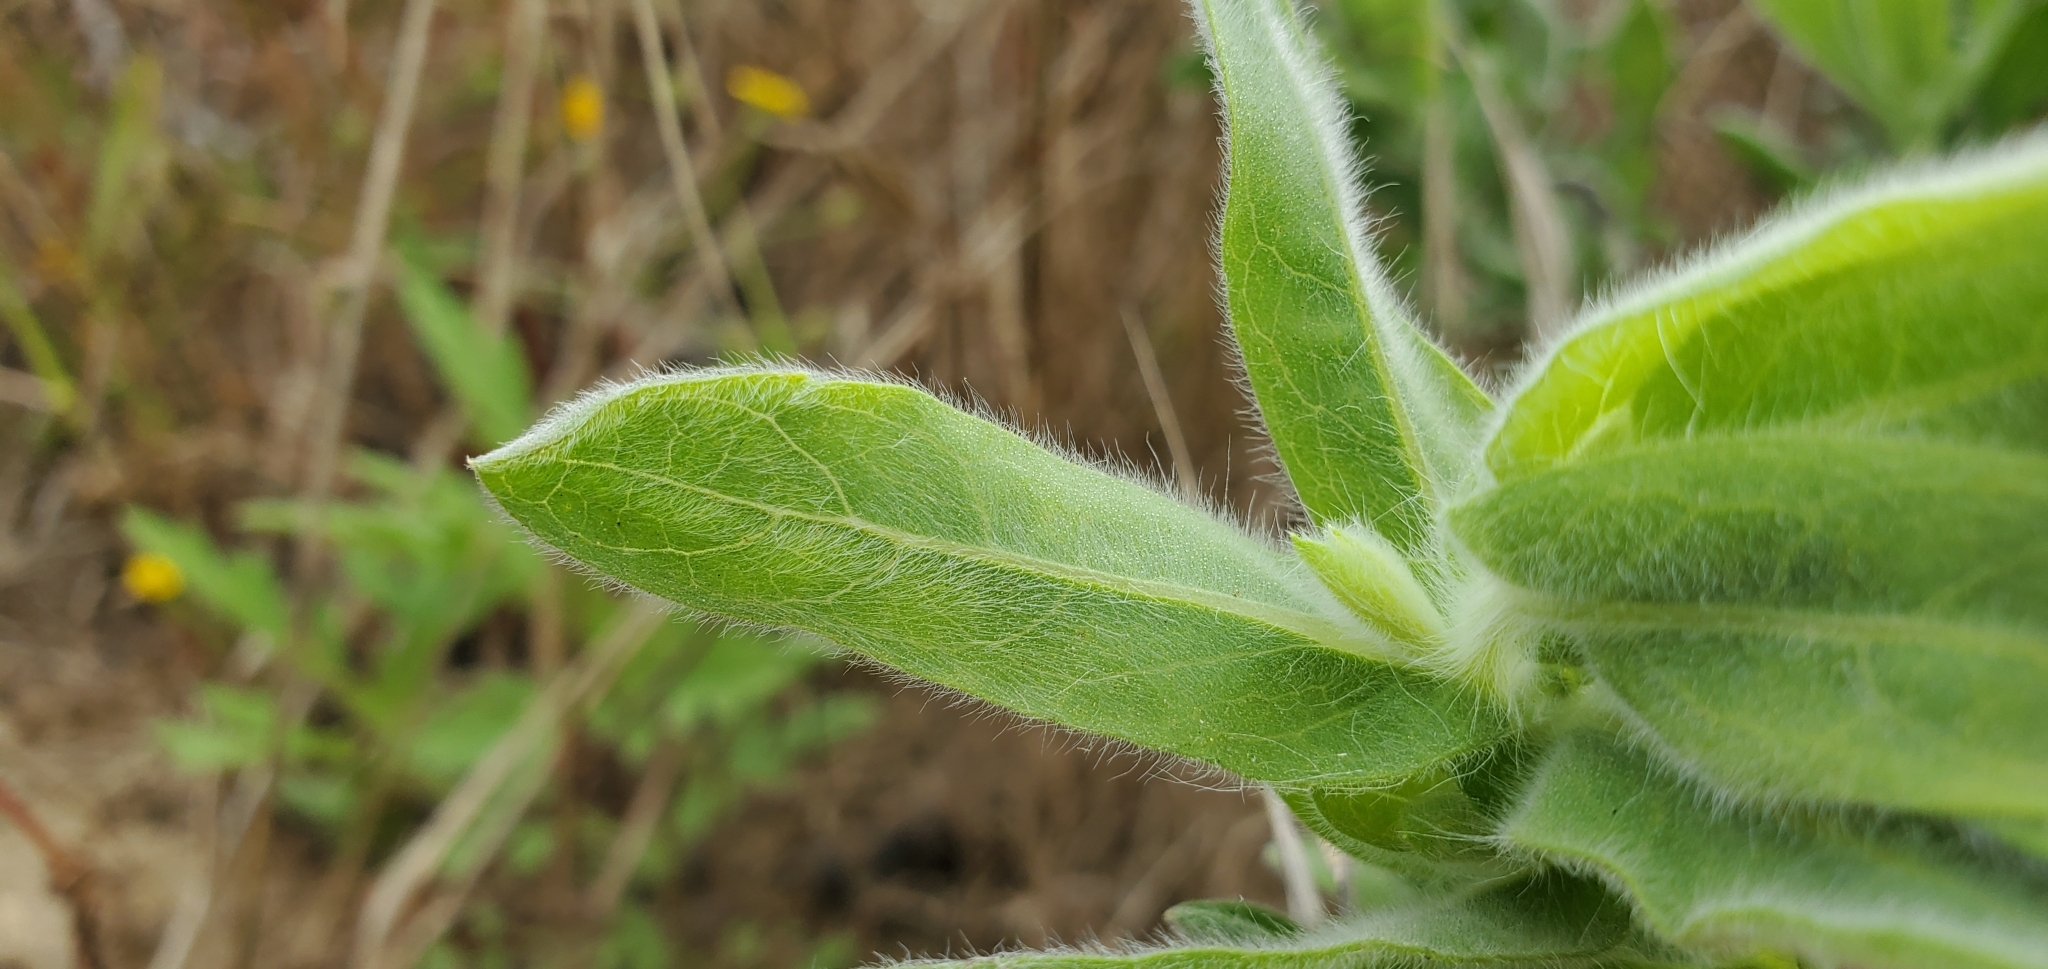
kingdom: Plantae
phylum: Tracheophyta
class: Magnoliopsida
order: Asterales
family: Asteraceae
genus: Heterotheca
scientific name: Heterotheca sessiliflora
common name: Sessile-flower golden-aster
